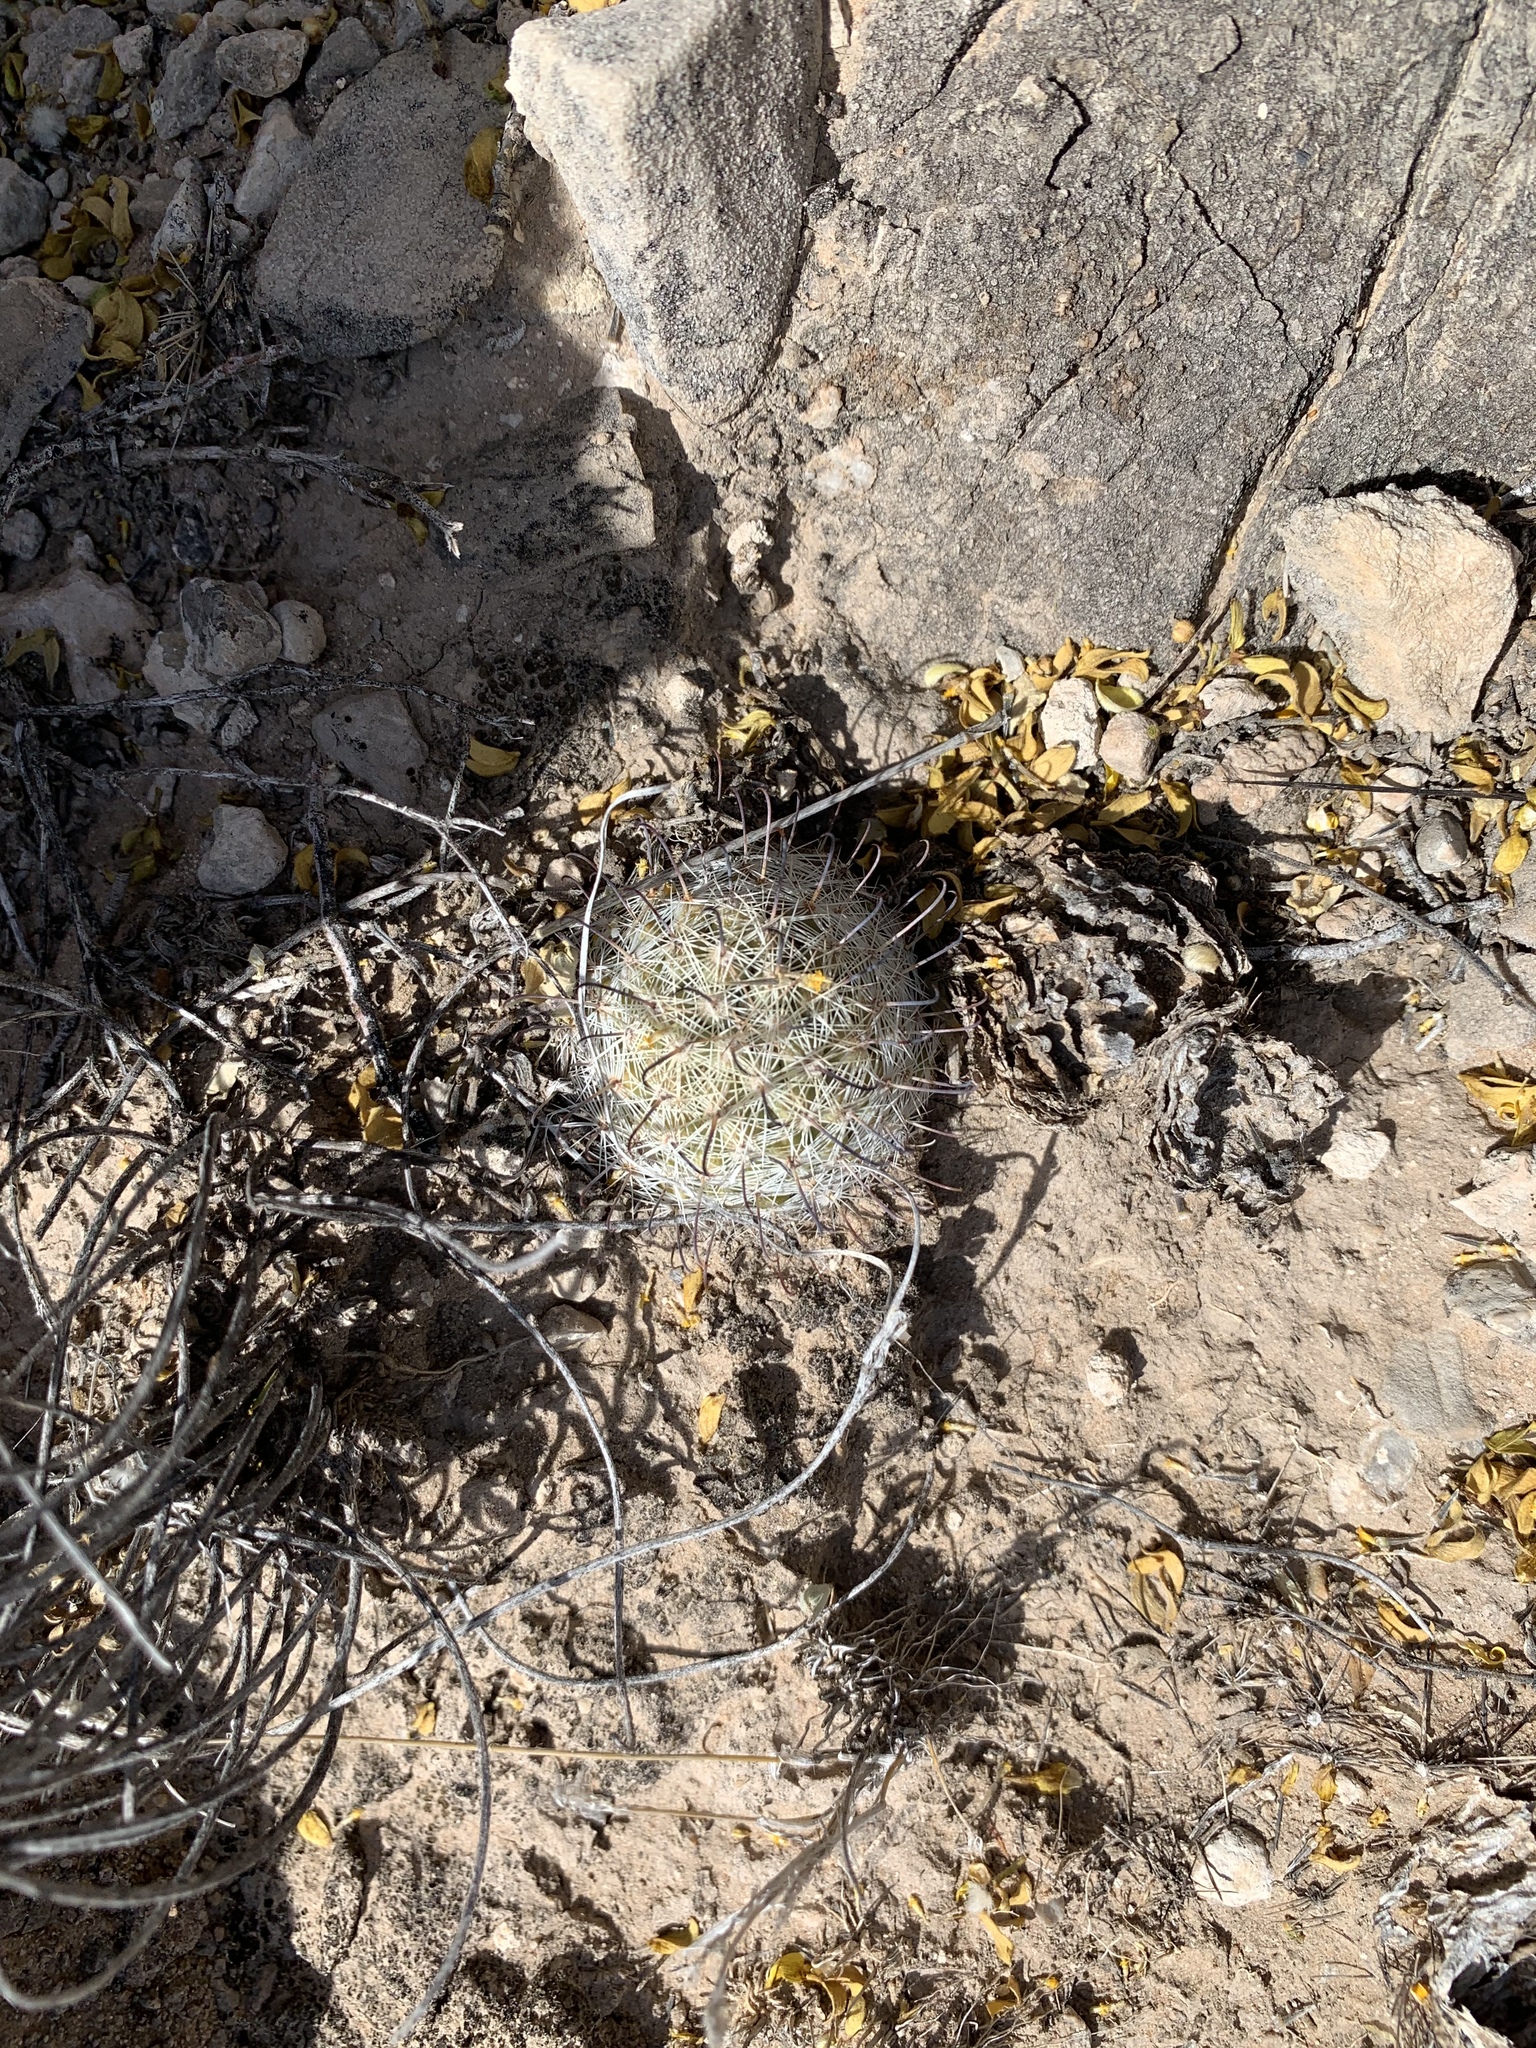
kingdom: Plantae
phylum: Tracheophyta
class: Magnoliopsida
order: Caryophyllales
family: Cactaceae
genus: Cochemiea
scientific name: Cochemiea grahamii
